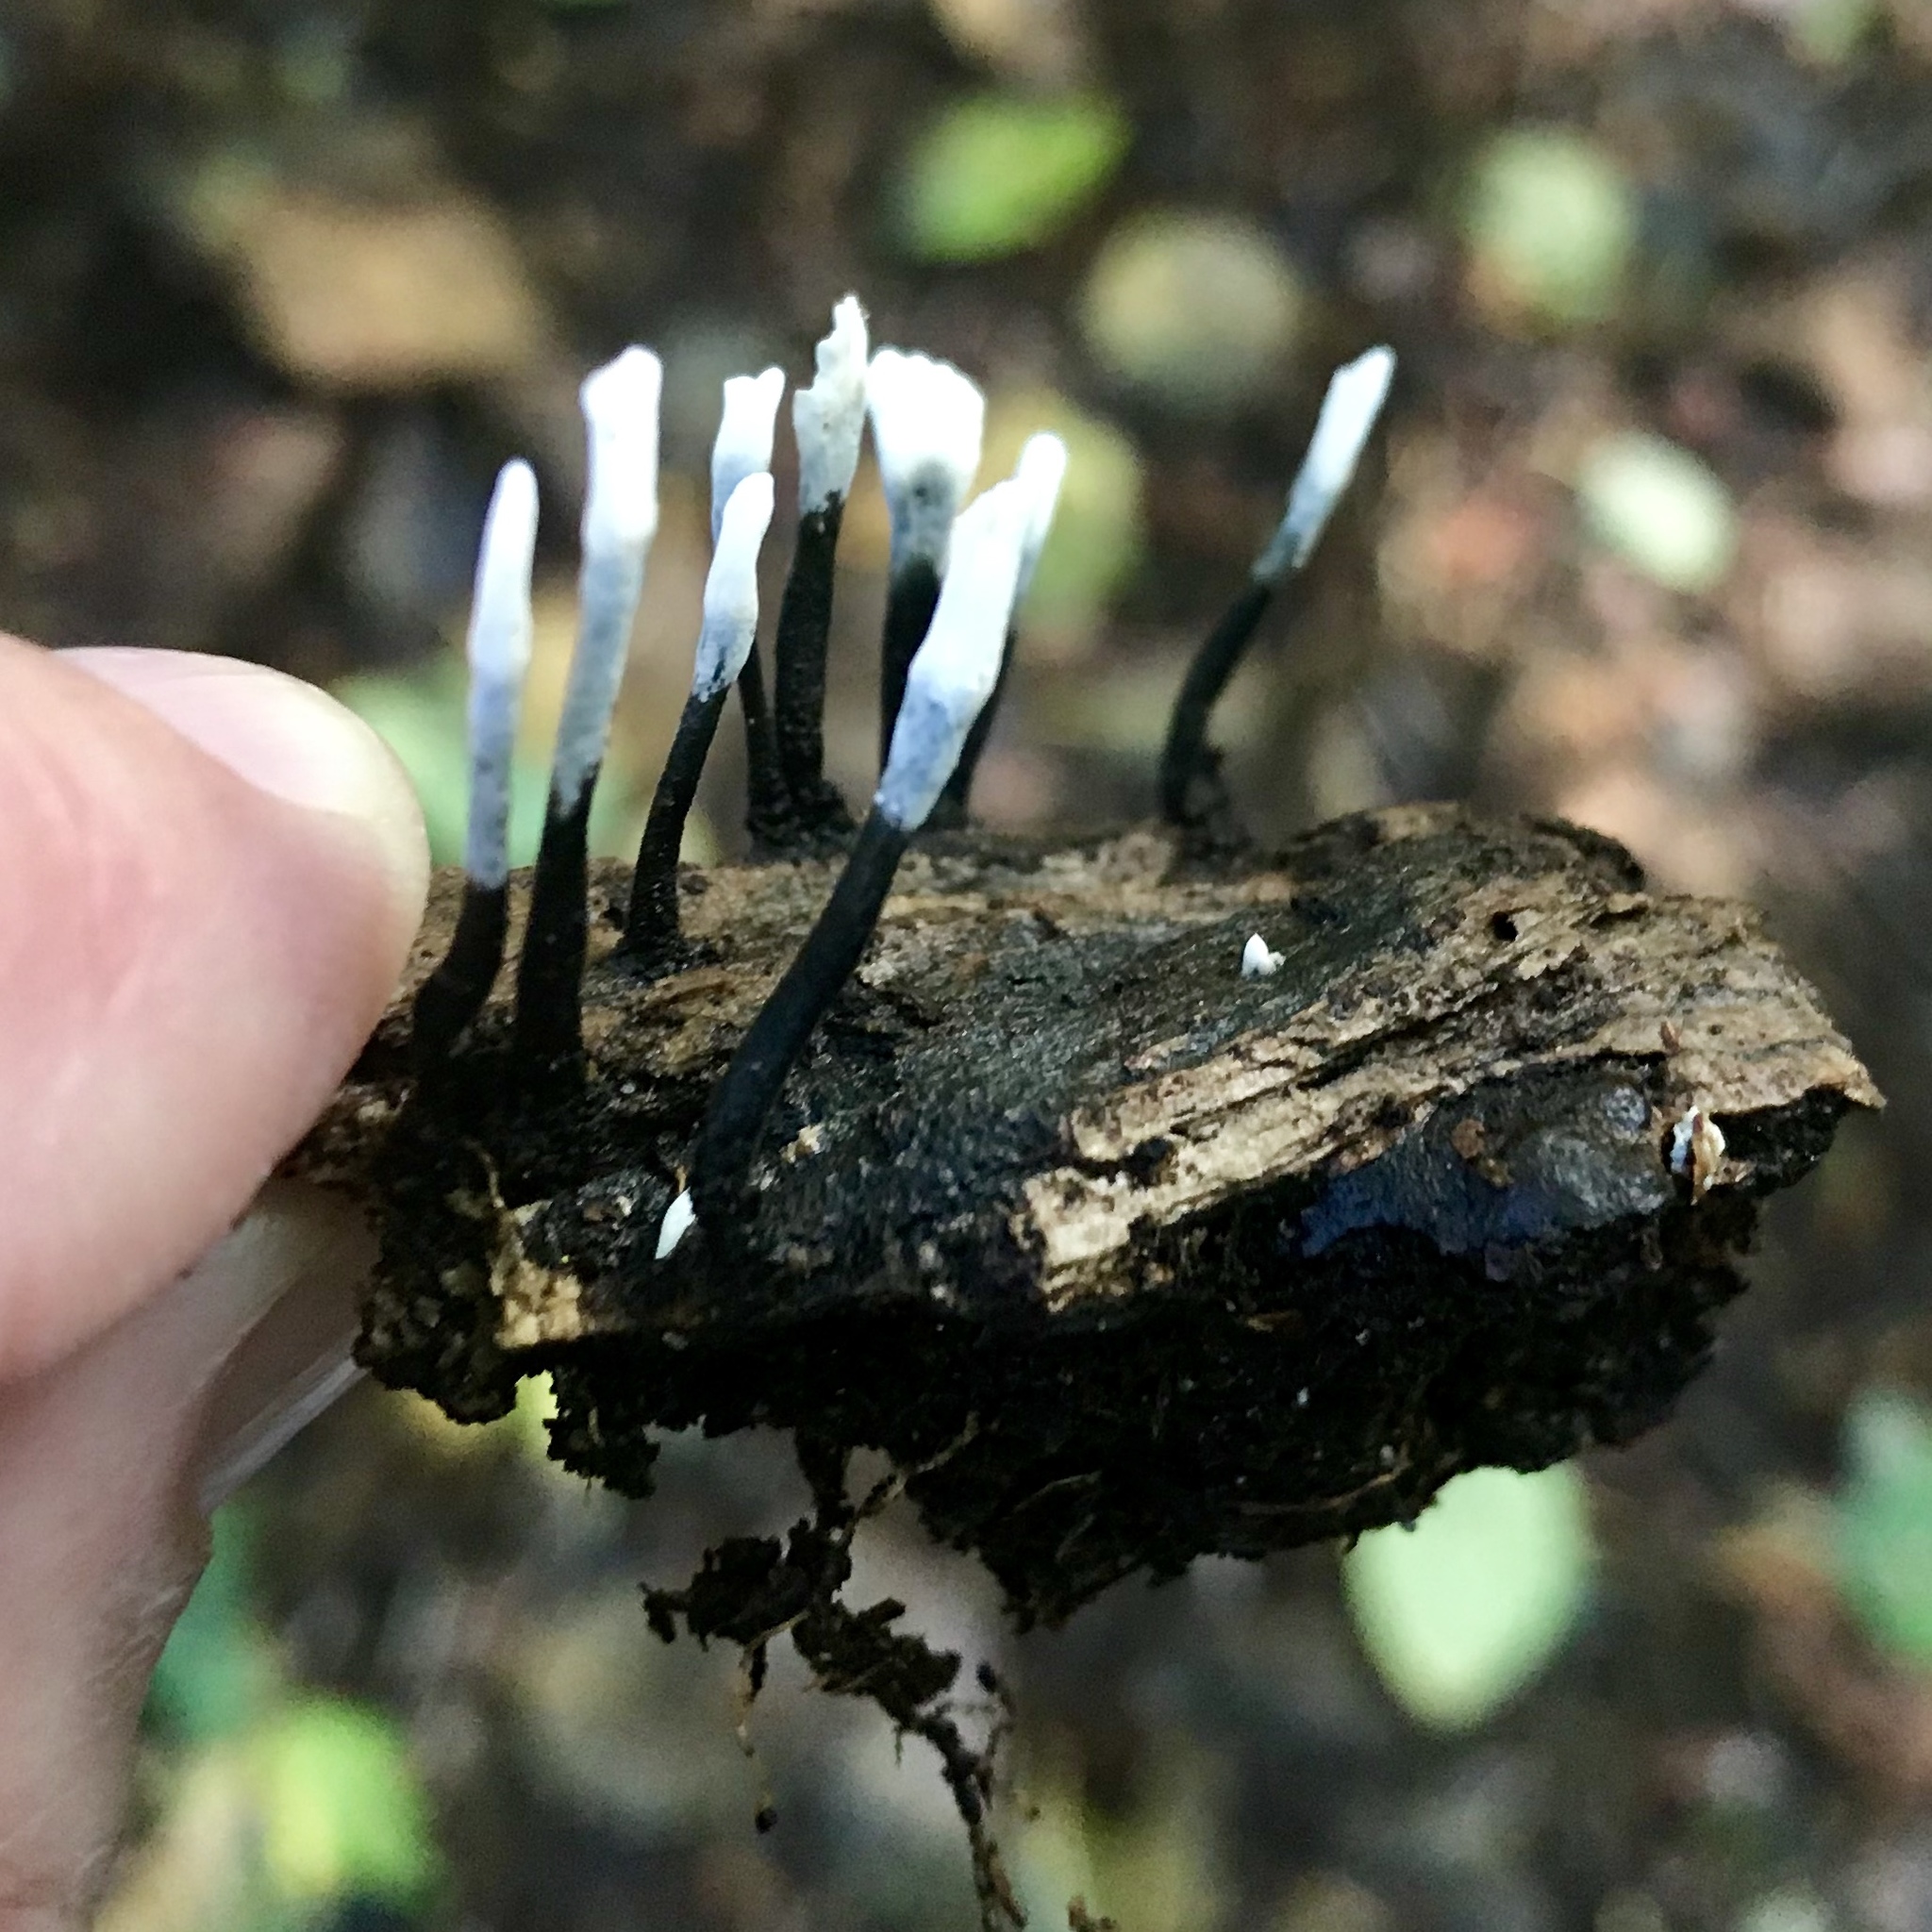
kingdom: Fungi
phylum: Ascomycota
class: Sordariomycetes
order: Xylariales
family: Xylariaceae
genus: Xylaria
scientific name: Xylaria hypoxylon
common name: Candle-snuff fungus
